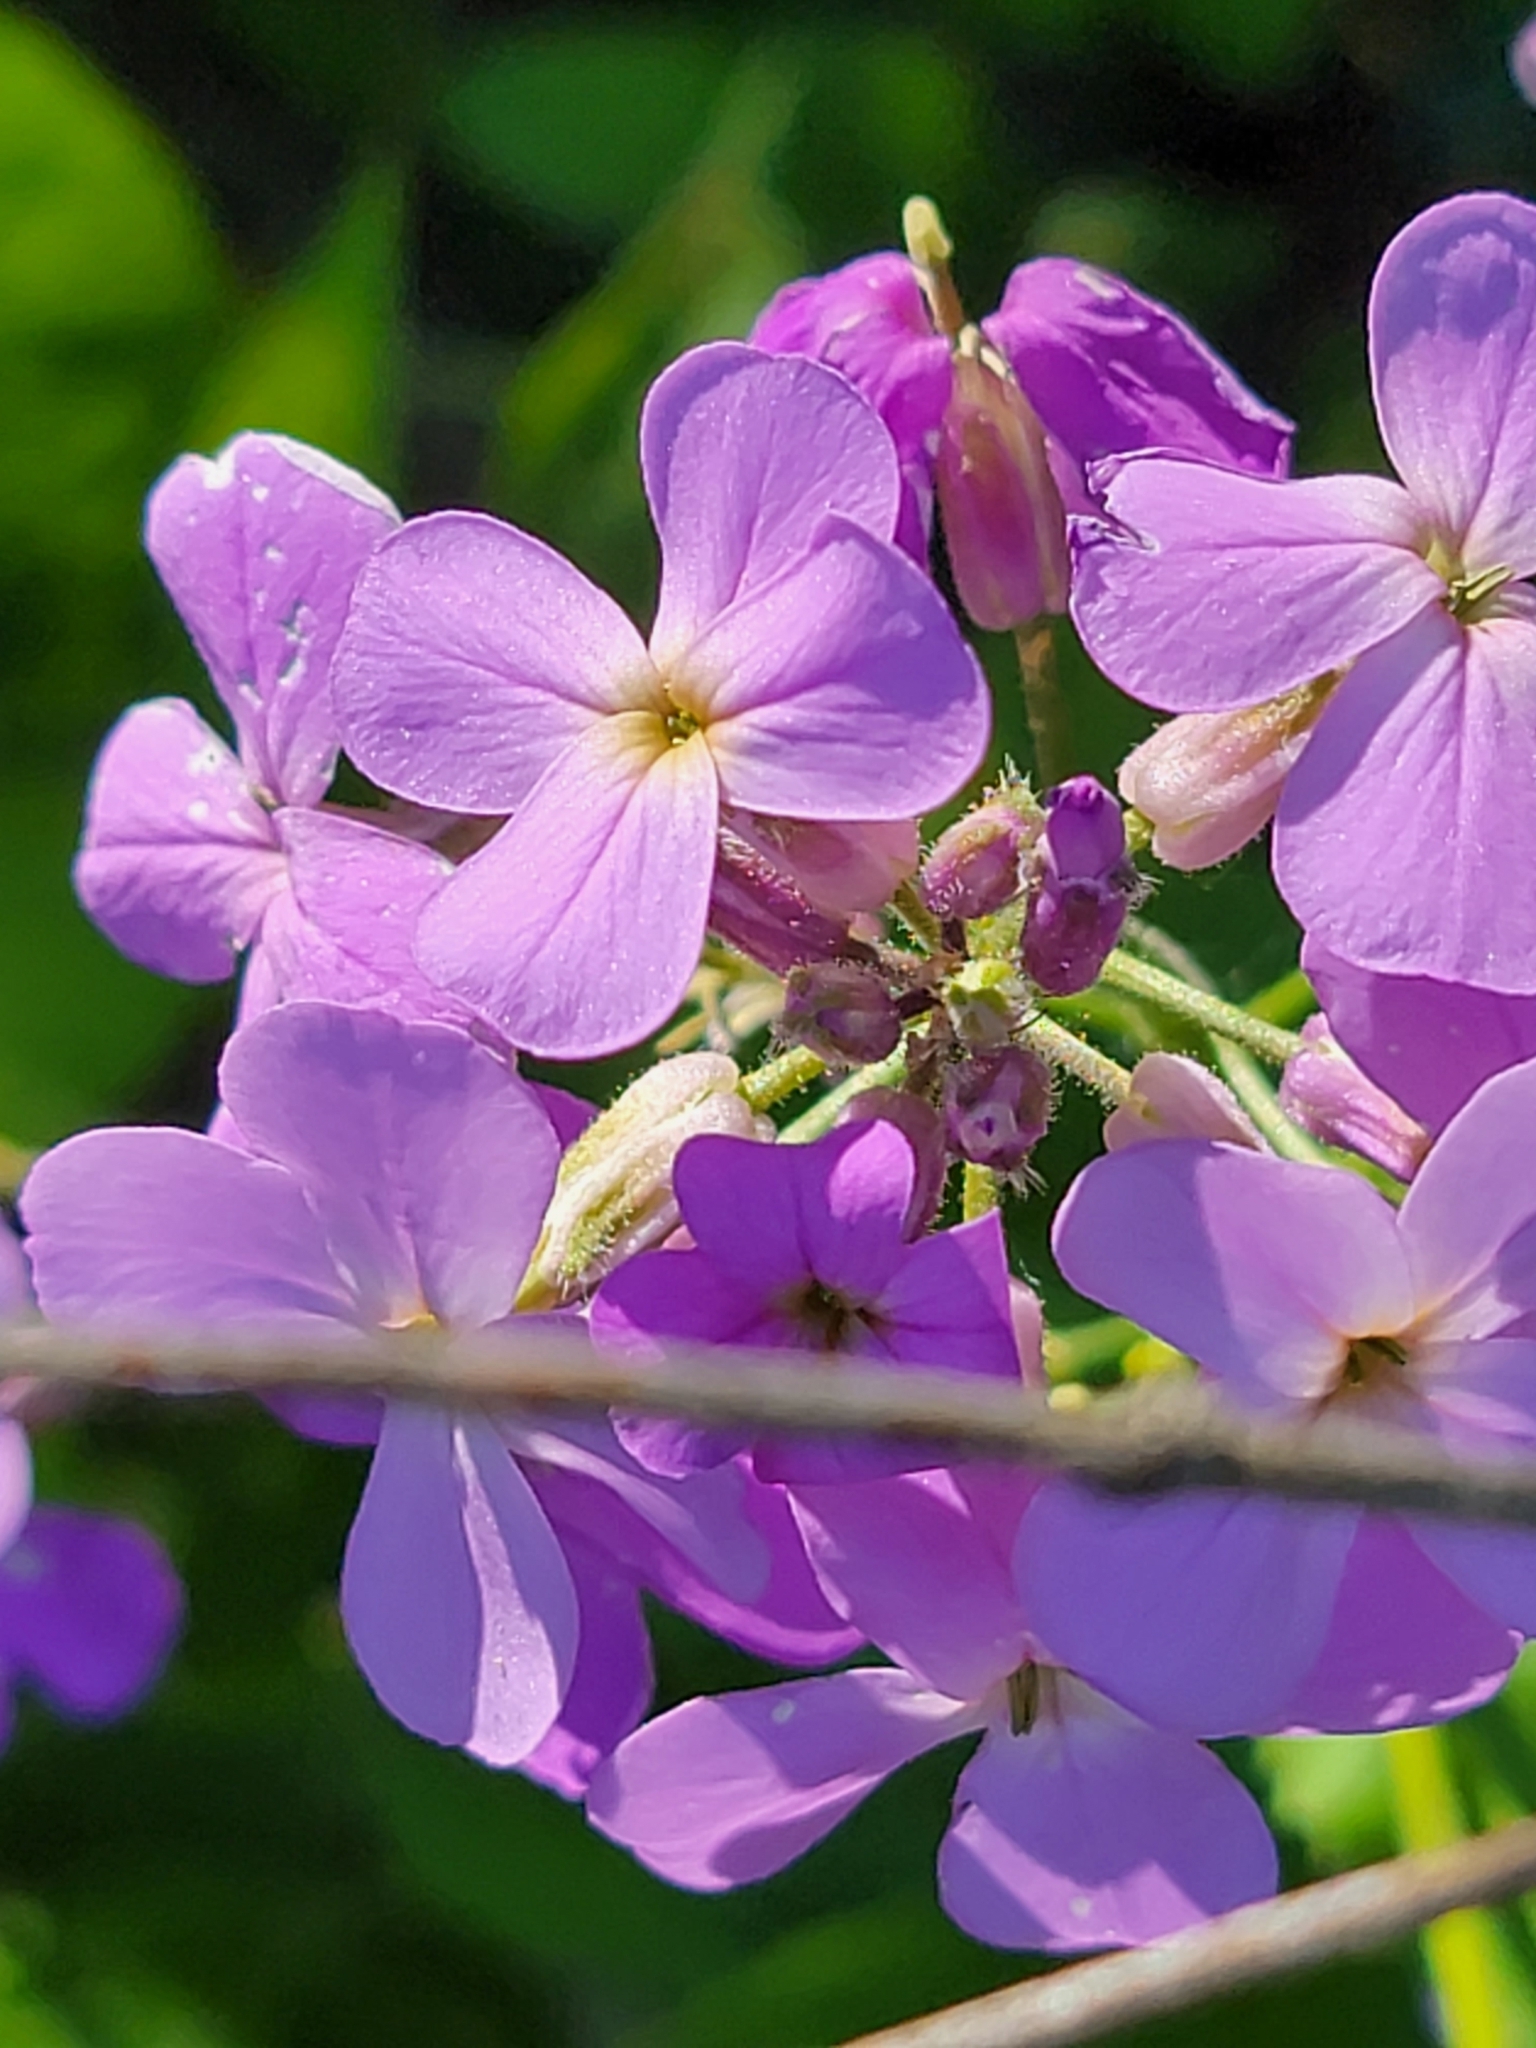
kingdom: Plantae
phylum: Tracheophyta
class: Magnoliopsida
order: Brassicales
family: Brassicaceae
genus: Hesperis
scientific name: Hesperis matronalis
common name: Dame's-violet
